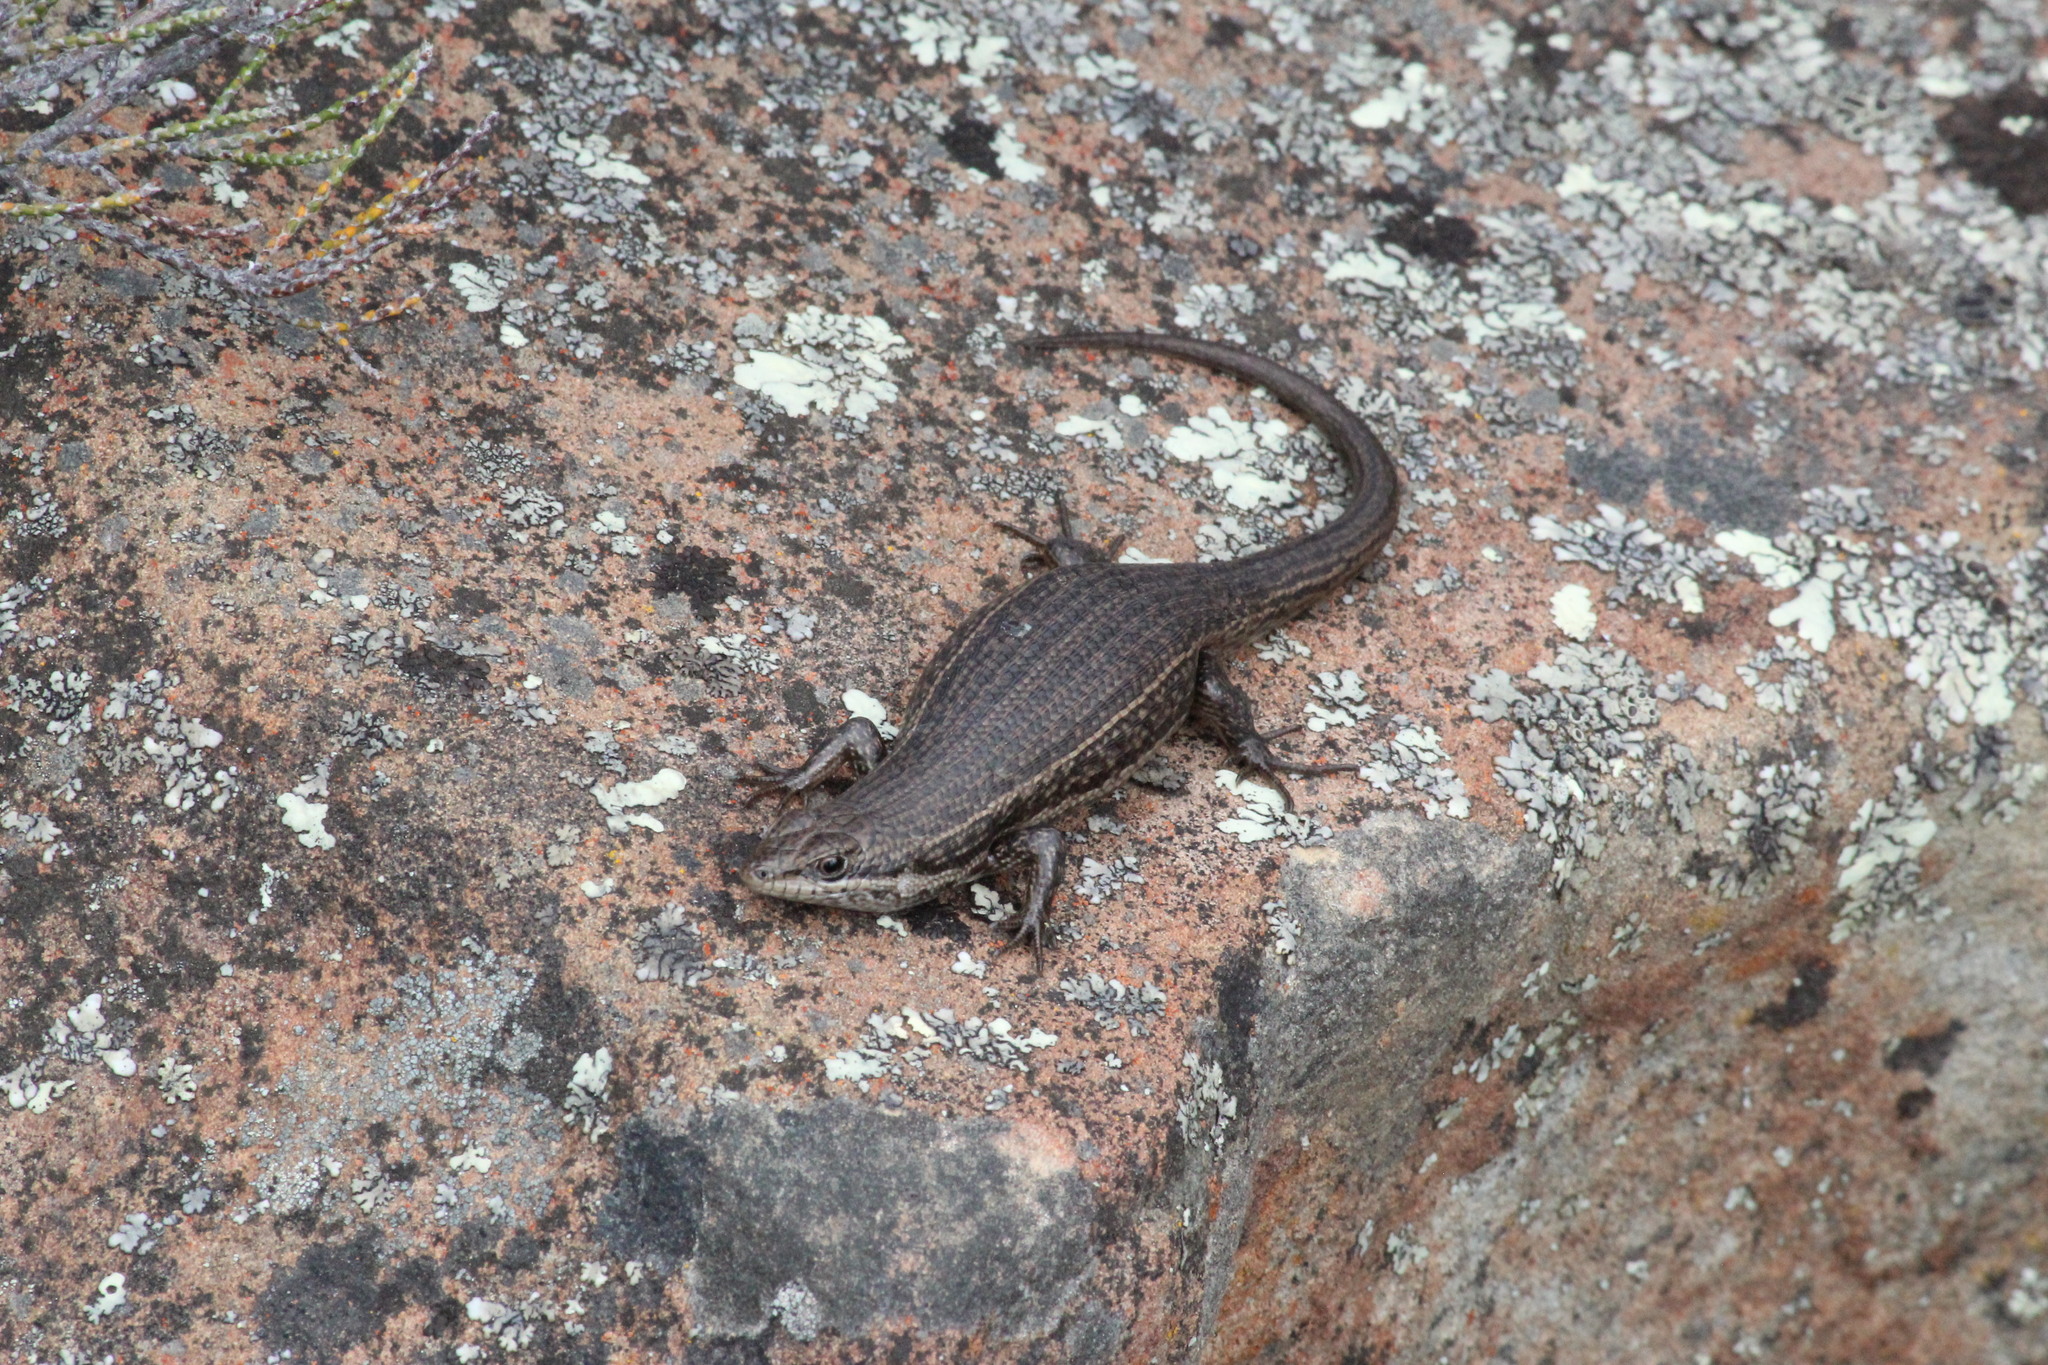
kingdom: Animalia
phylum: Chordata
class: Squamata
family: Scincidae
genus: Trachylepis
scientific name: Trachylepis variegata
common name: Variegated skink
